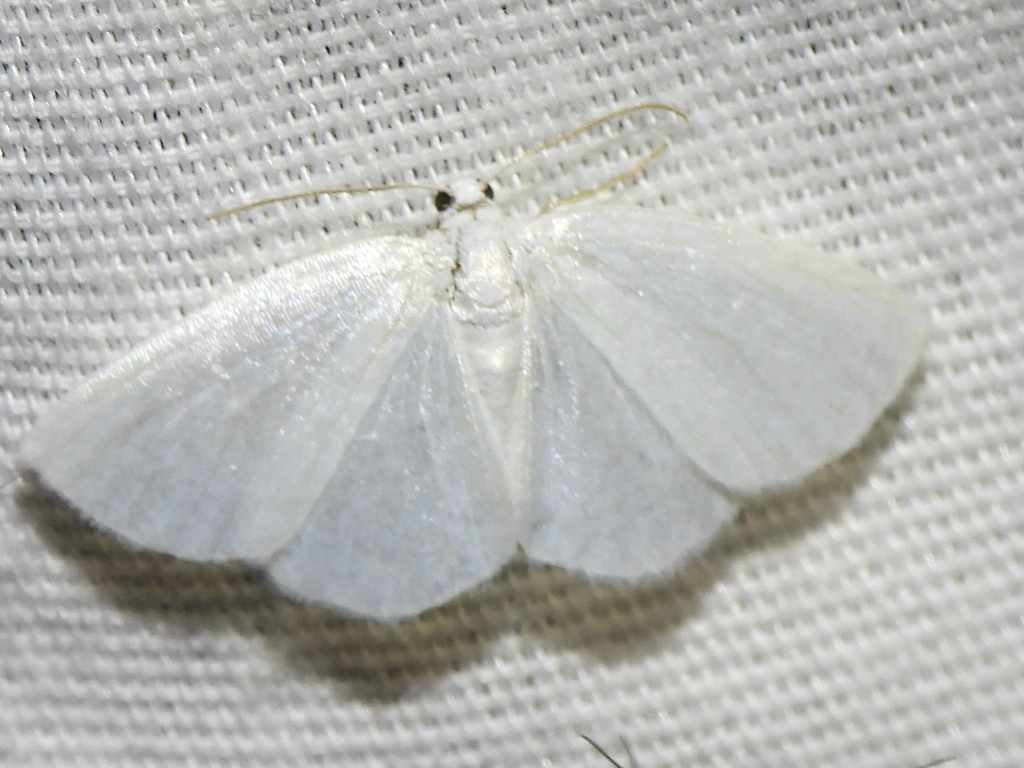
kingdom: Animalia
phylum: Arthropoda
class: Insecta
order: Lepidoptera
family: Geometridae
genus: Lomographa
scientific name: Lomographa vestaliata
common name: White spring moth
